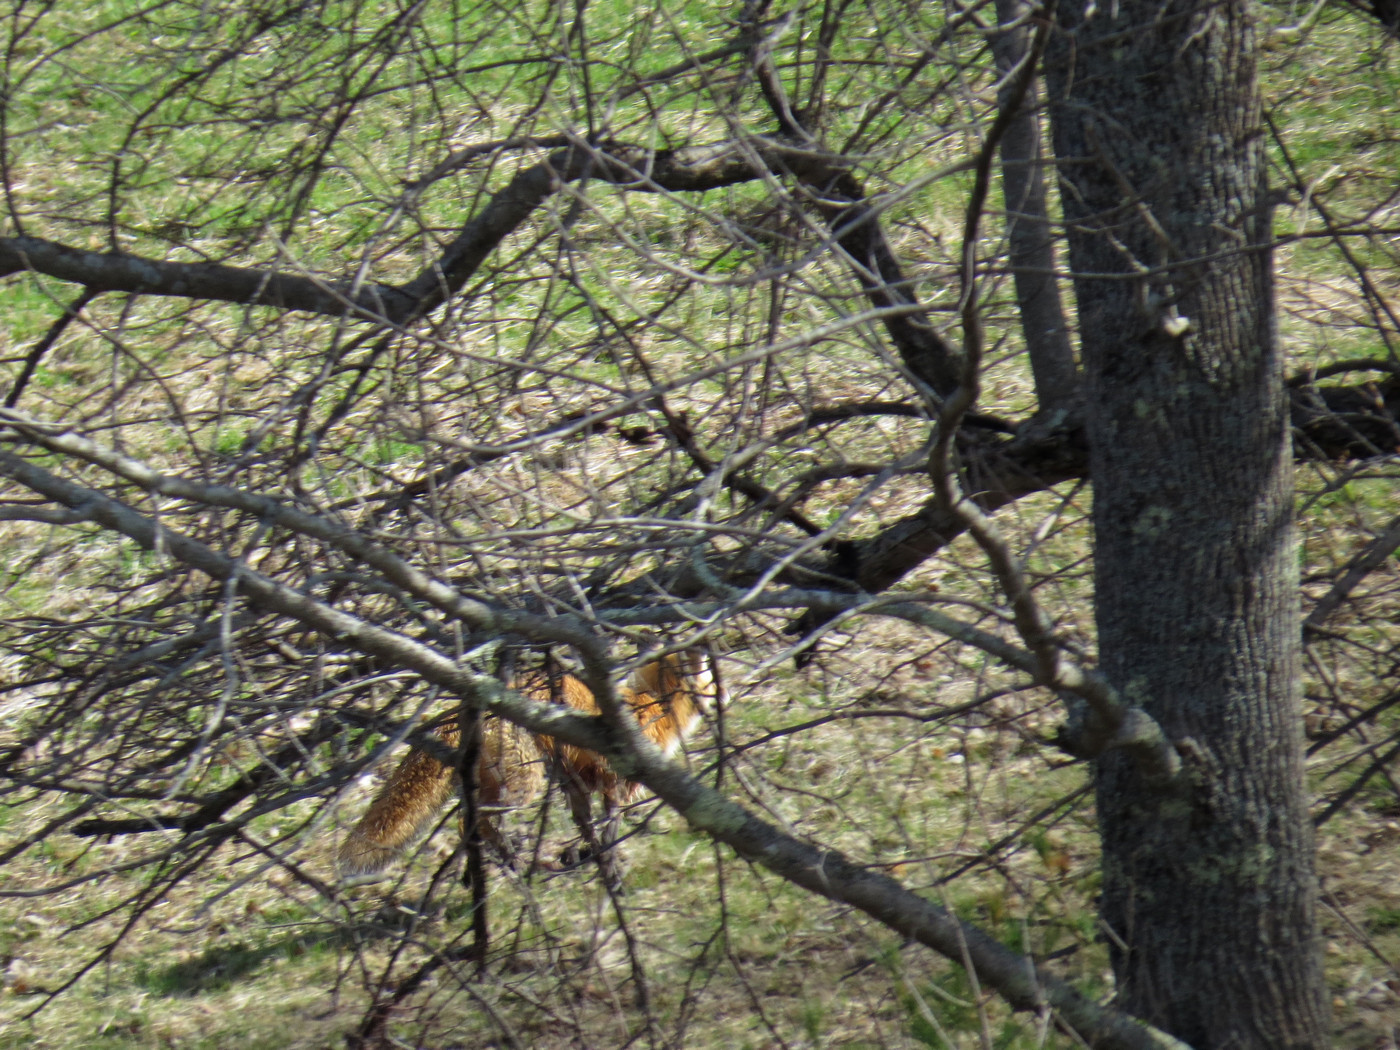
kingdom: Animalia
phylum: Chordata
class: Mammalia
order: Carnivora
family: Canidae
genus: Vulpes
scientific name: Vulpes vulpes
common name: Red fox
